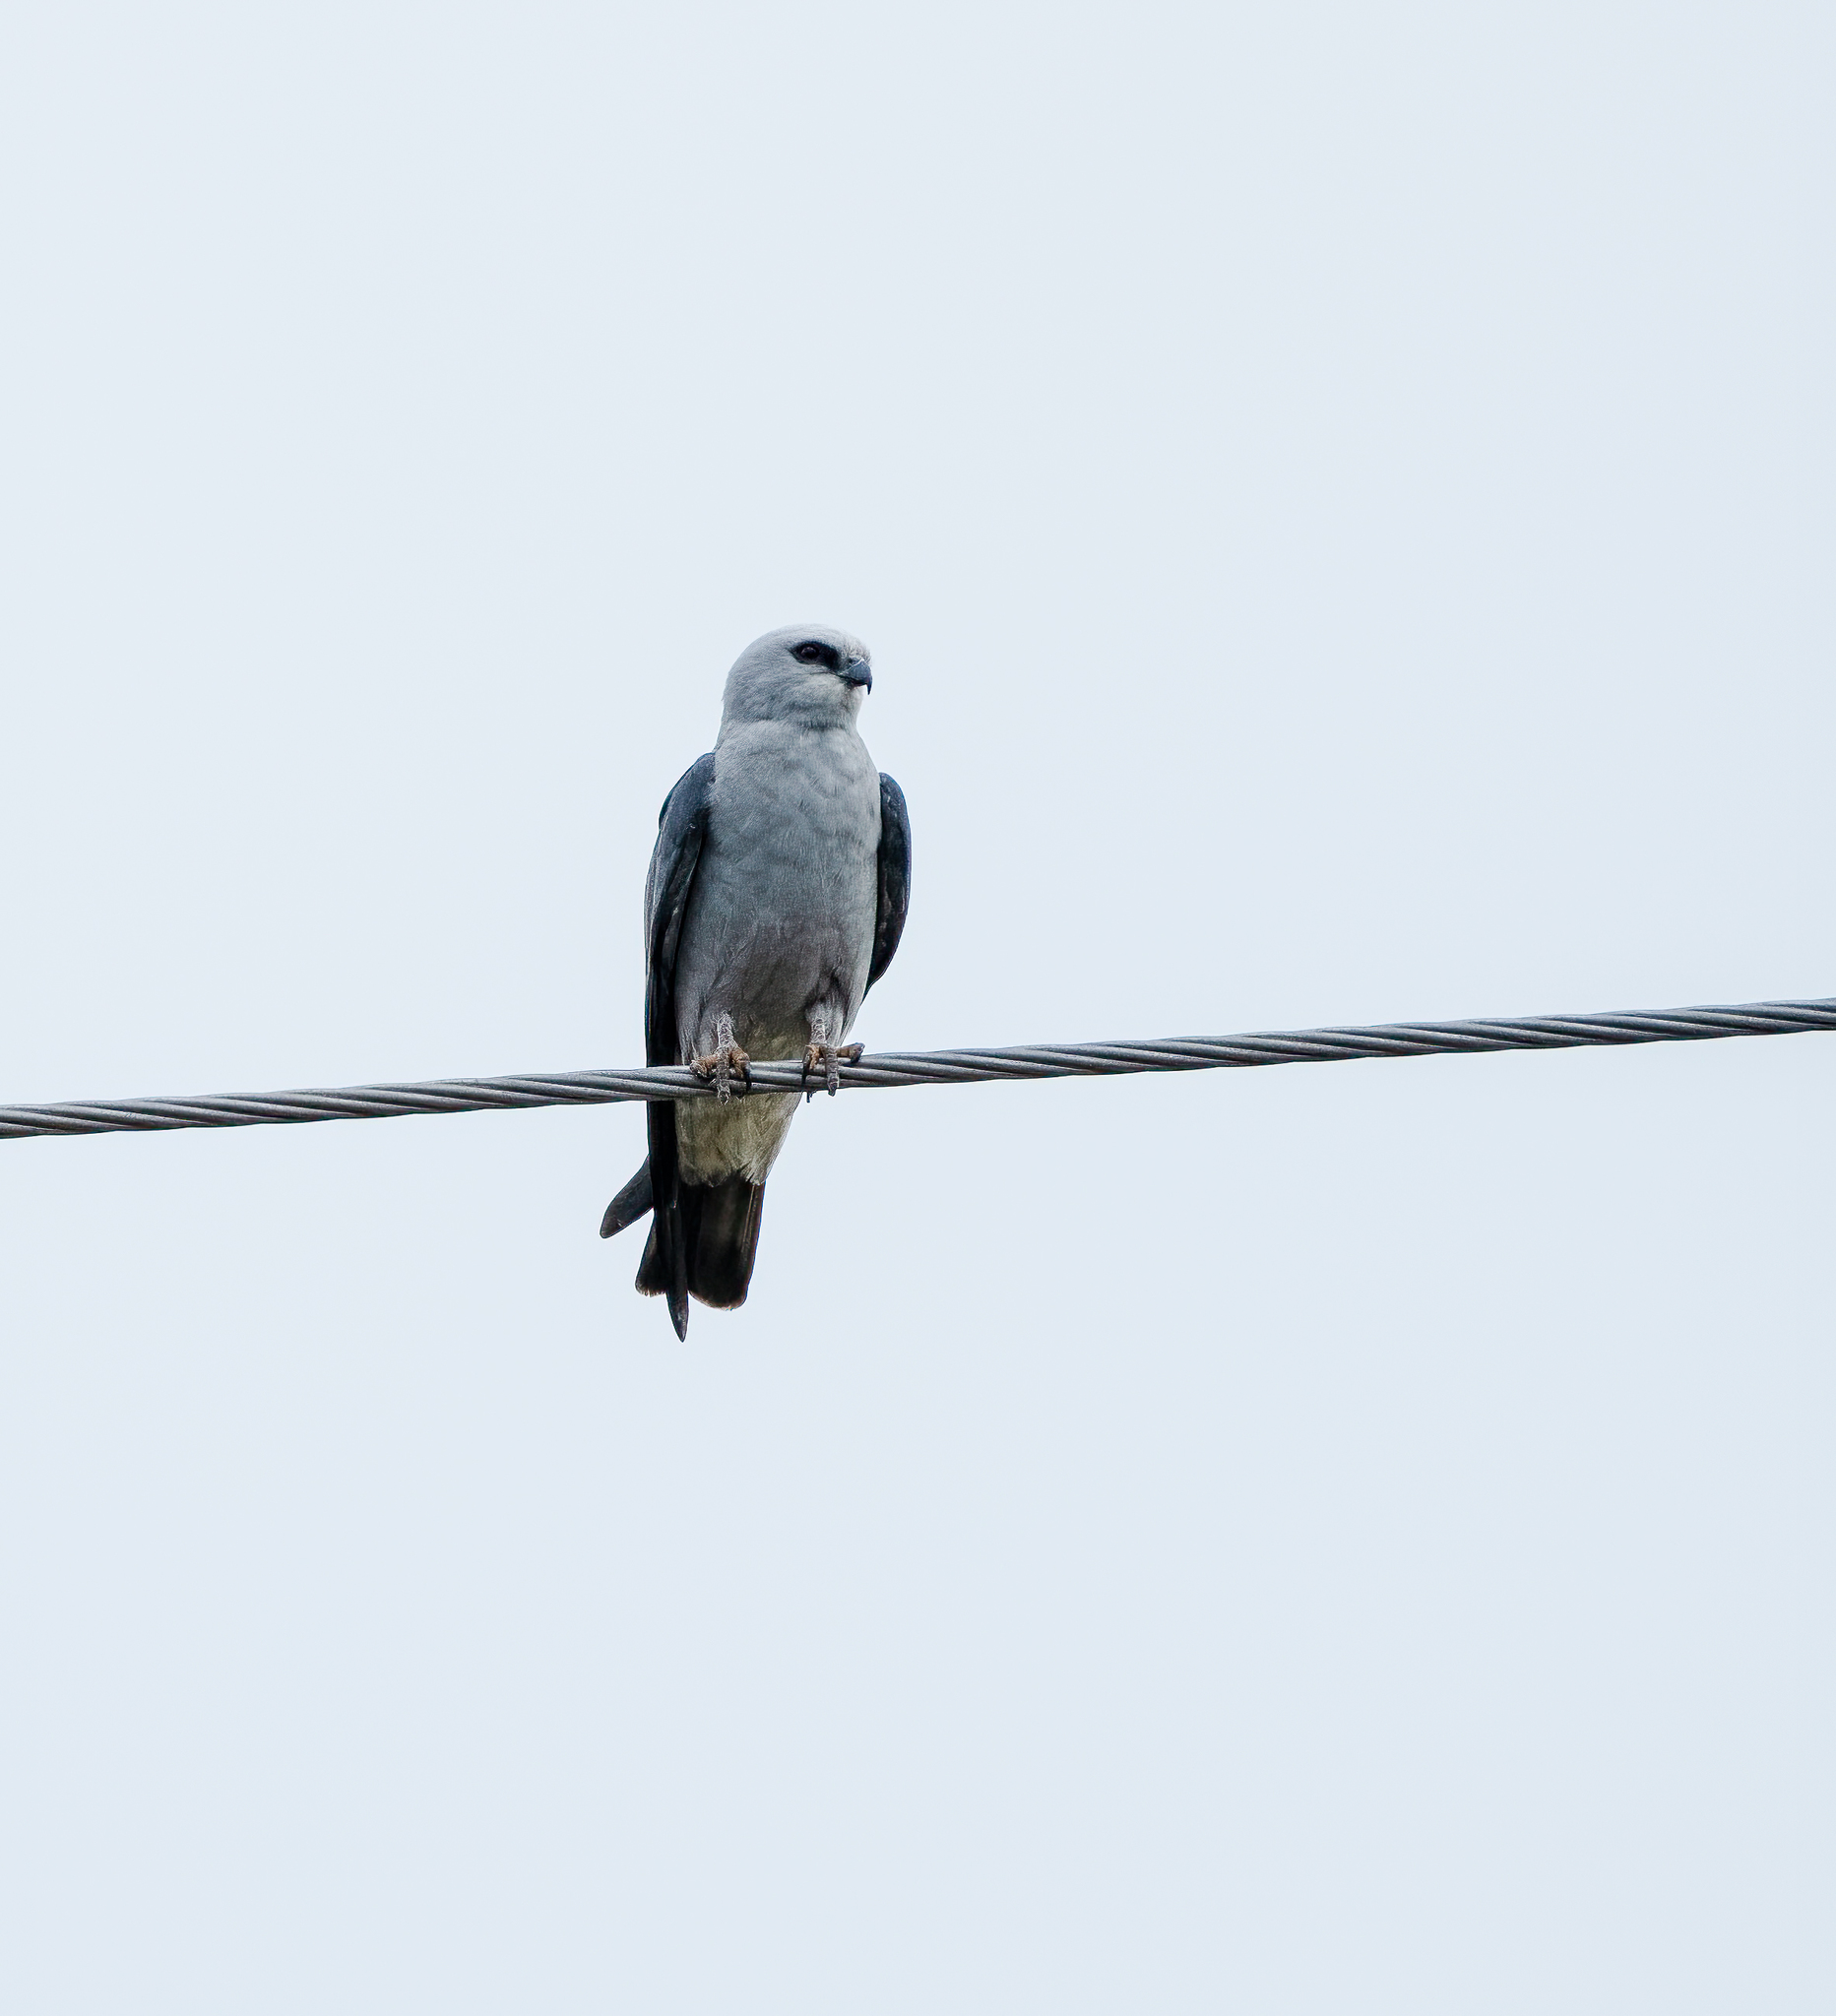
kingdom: Animalia
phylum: Chordata
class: Aves
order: Accipitriformes
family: Accipitridae
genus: Ictinia
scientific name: Ictinia mississippiensis
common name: Mississippi kite
